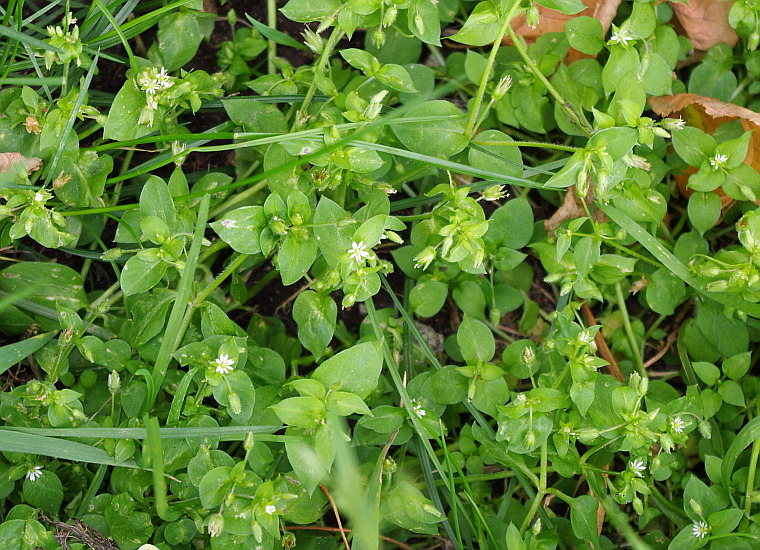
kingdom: Plantae
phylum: Tracheophyta
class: Magnoliopsida
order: Caryophyllales
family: Caryophyllaceae
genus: Stellaria
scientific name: Stellaria media
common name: Common chickweed
